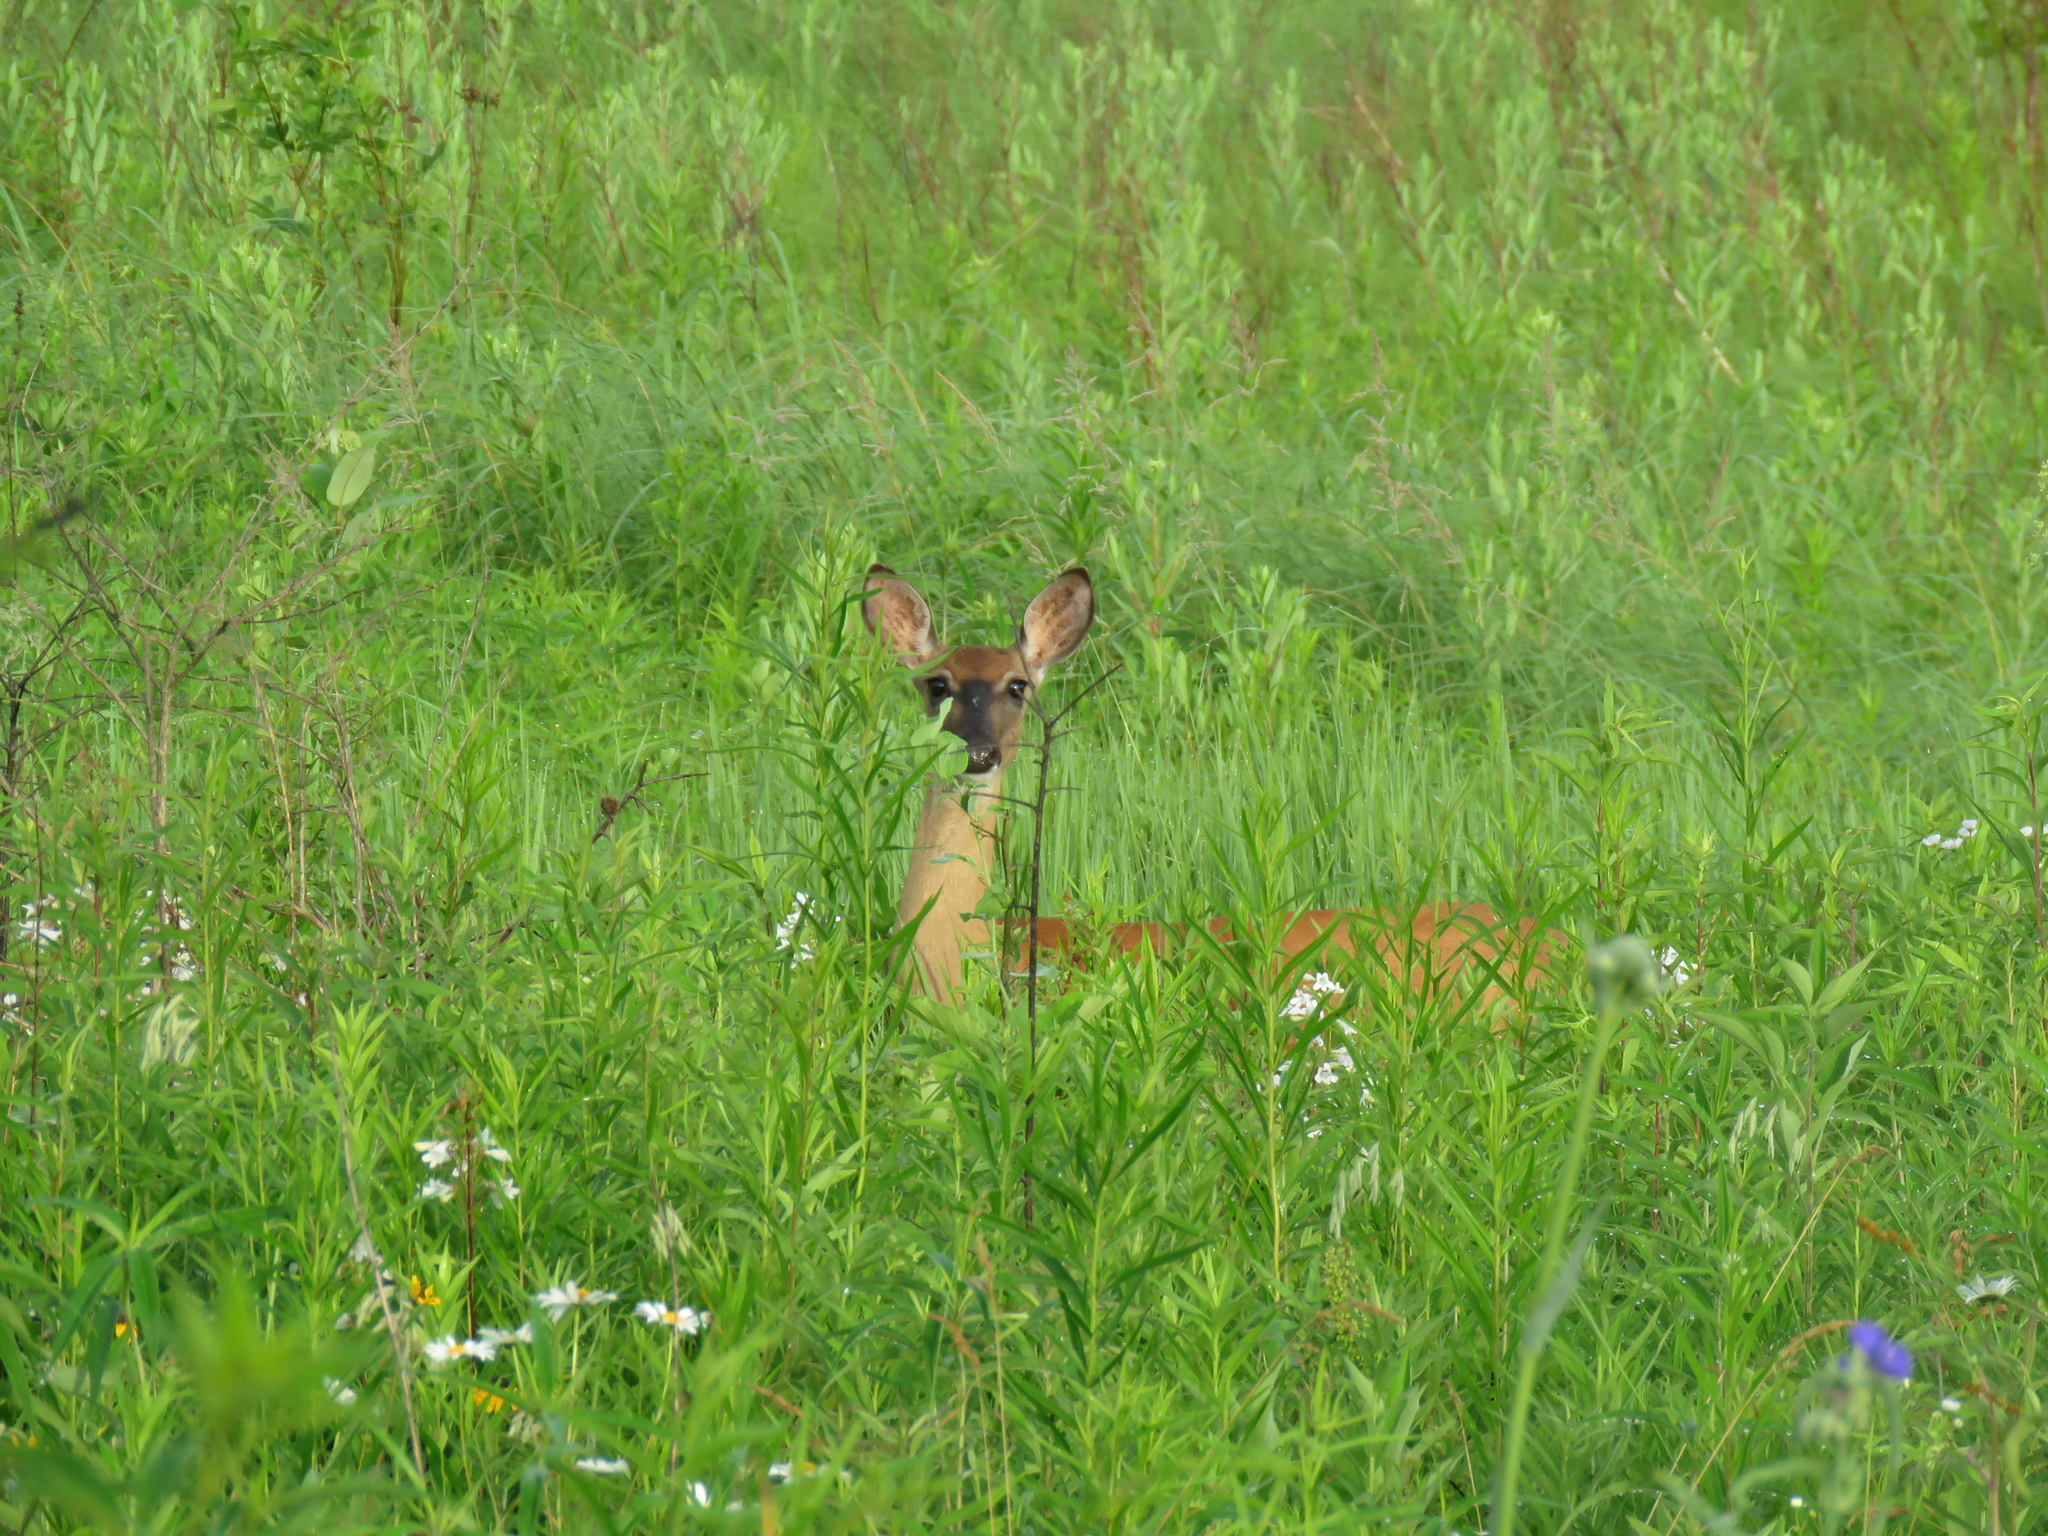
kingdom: Animalia
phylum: Chordata
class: Mammalia
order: Artiodactyla
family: Cervidae
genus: Odocoileus
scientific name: Odocoileus virginianus
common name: White-tailed deer
